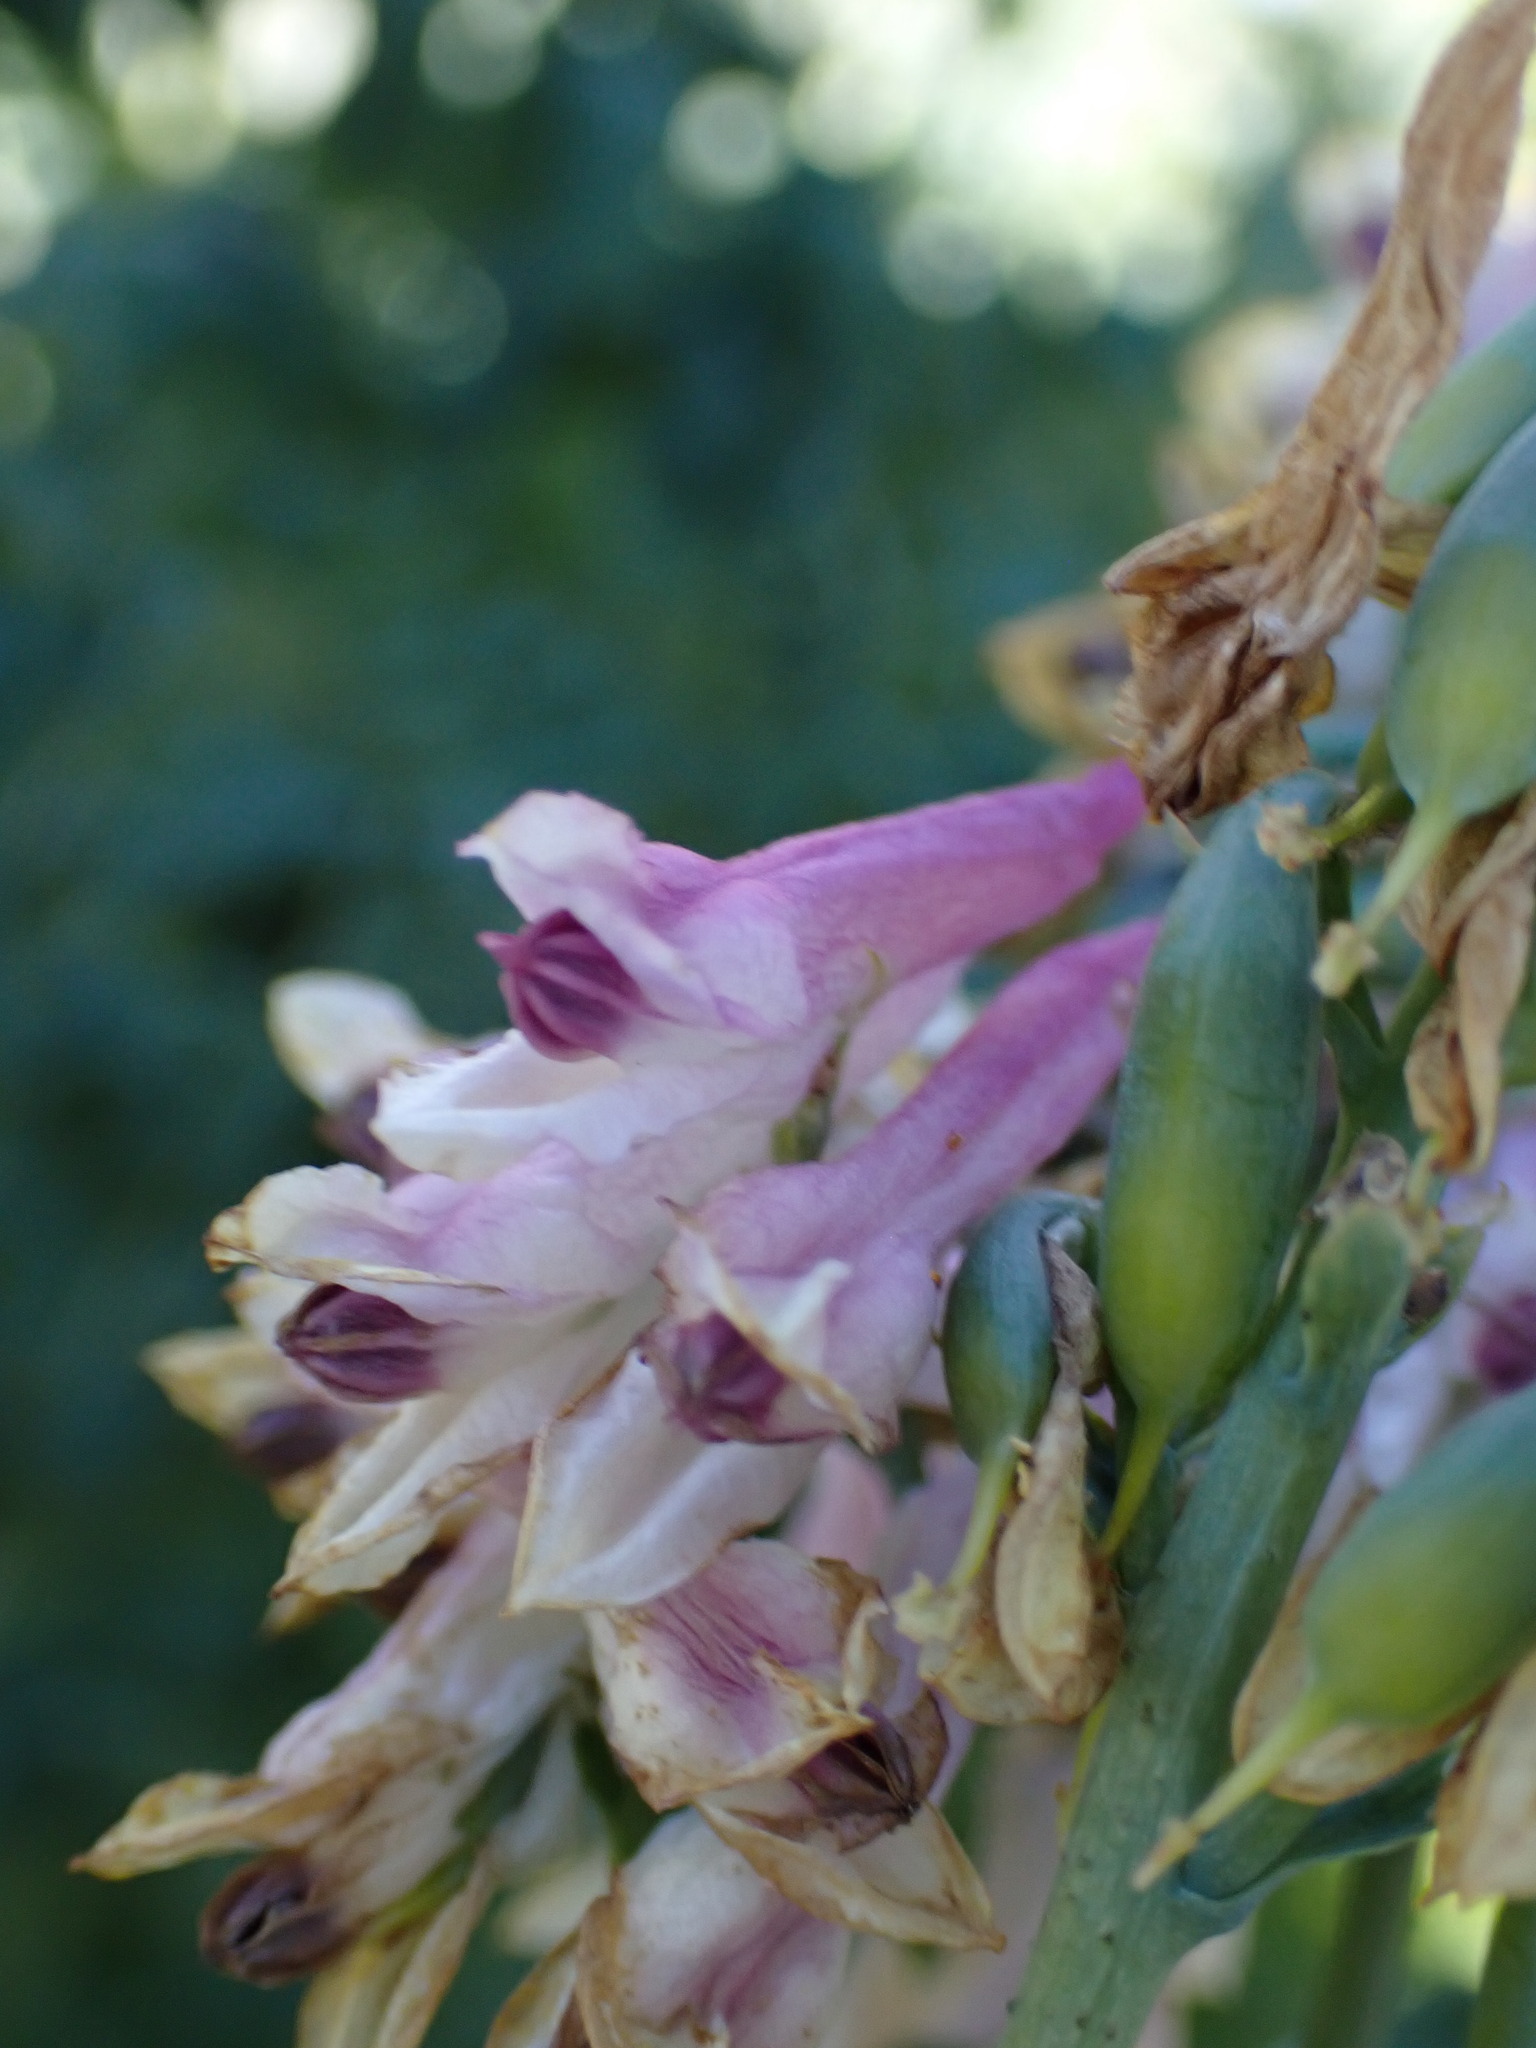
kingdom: Plantae
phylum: Tracheophyta
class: Magnoliopsida
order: Ranunculales
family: Papaveraceae
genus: Corydalis
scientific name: Corydalis caseana
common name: Fitweed
